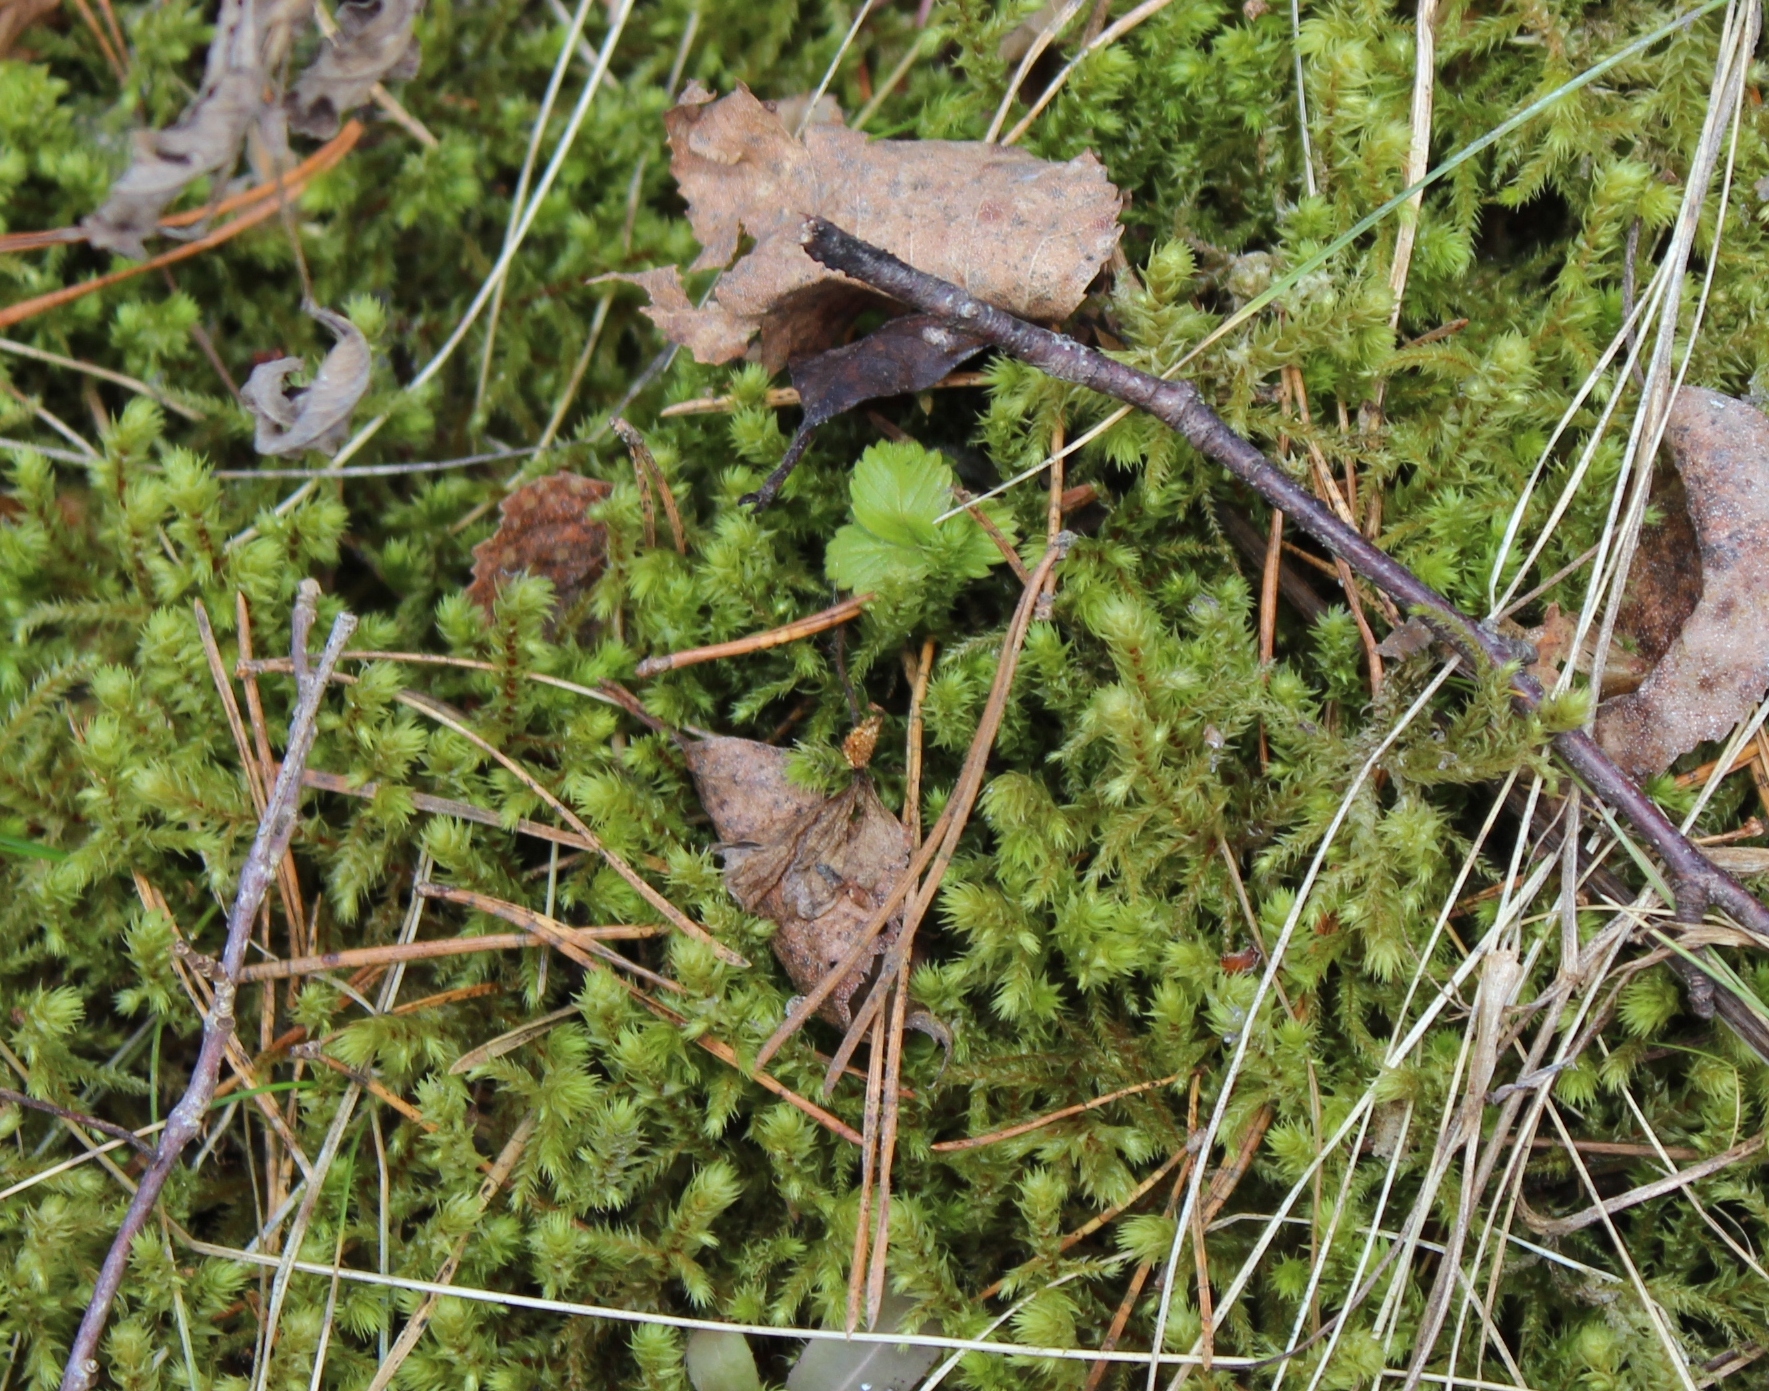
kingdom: Plantae
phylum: Bryophyta
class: Bryopsida
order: Hypnales
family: Hylocomiaceae
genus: Hylocomiadelphus
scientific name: Hylocomiadelphus triquetrus
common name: Rough goose neck moss
